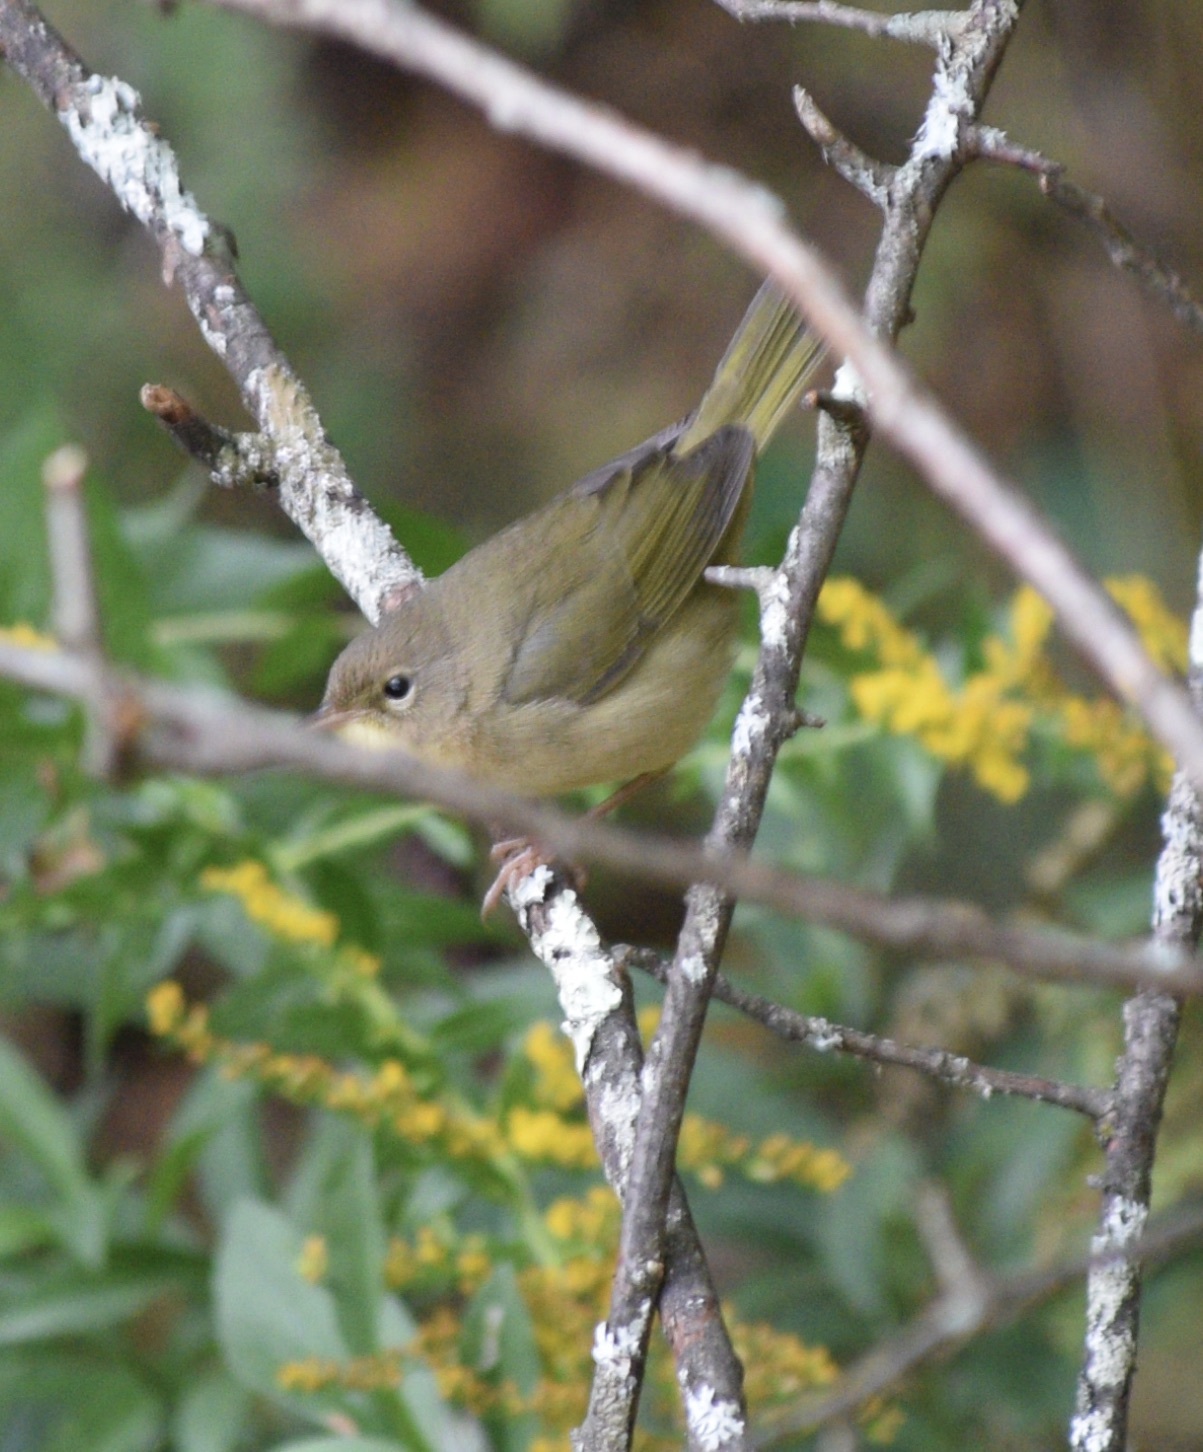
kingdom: Animalia
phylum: Chordata
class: Aves
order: Passeriformes
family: Parulidae
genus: Geothlypis
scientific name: Geothlypis trichas
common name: Common yellowthroat
